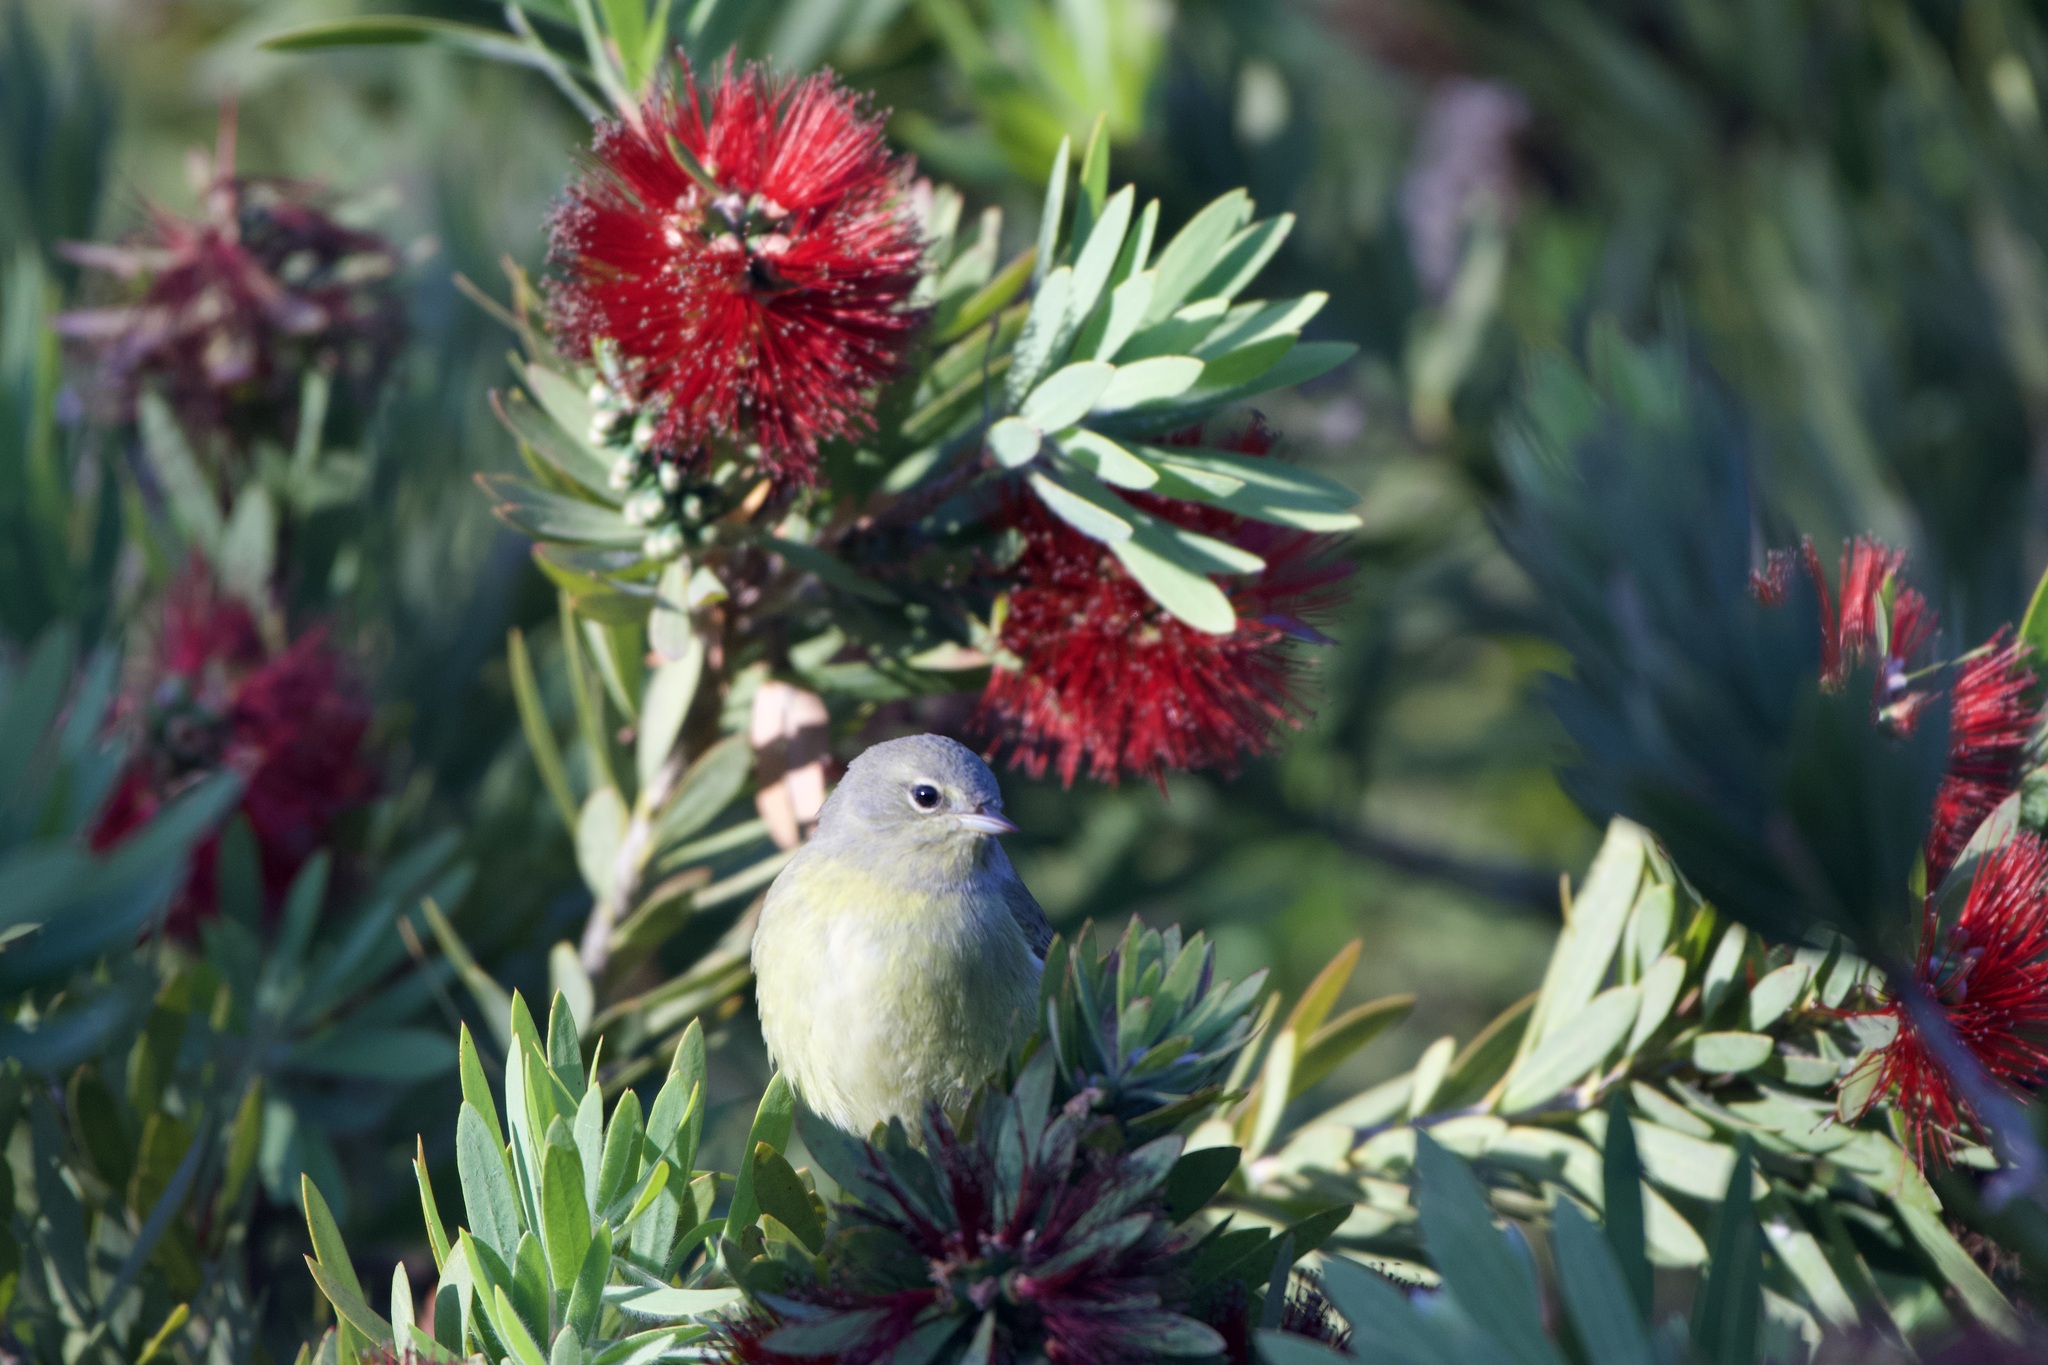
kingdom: Animalia
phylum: Chordata
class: Aves
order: Passeriformes
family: Parulidae
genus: Leiothlypis
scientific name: Leiothlypis celata
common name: Orange-crowned warbler
